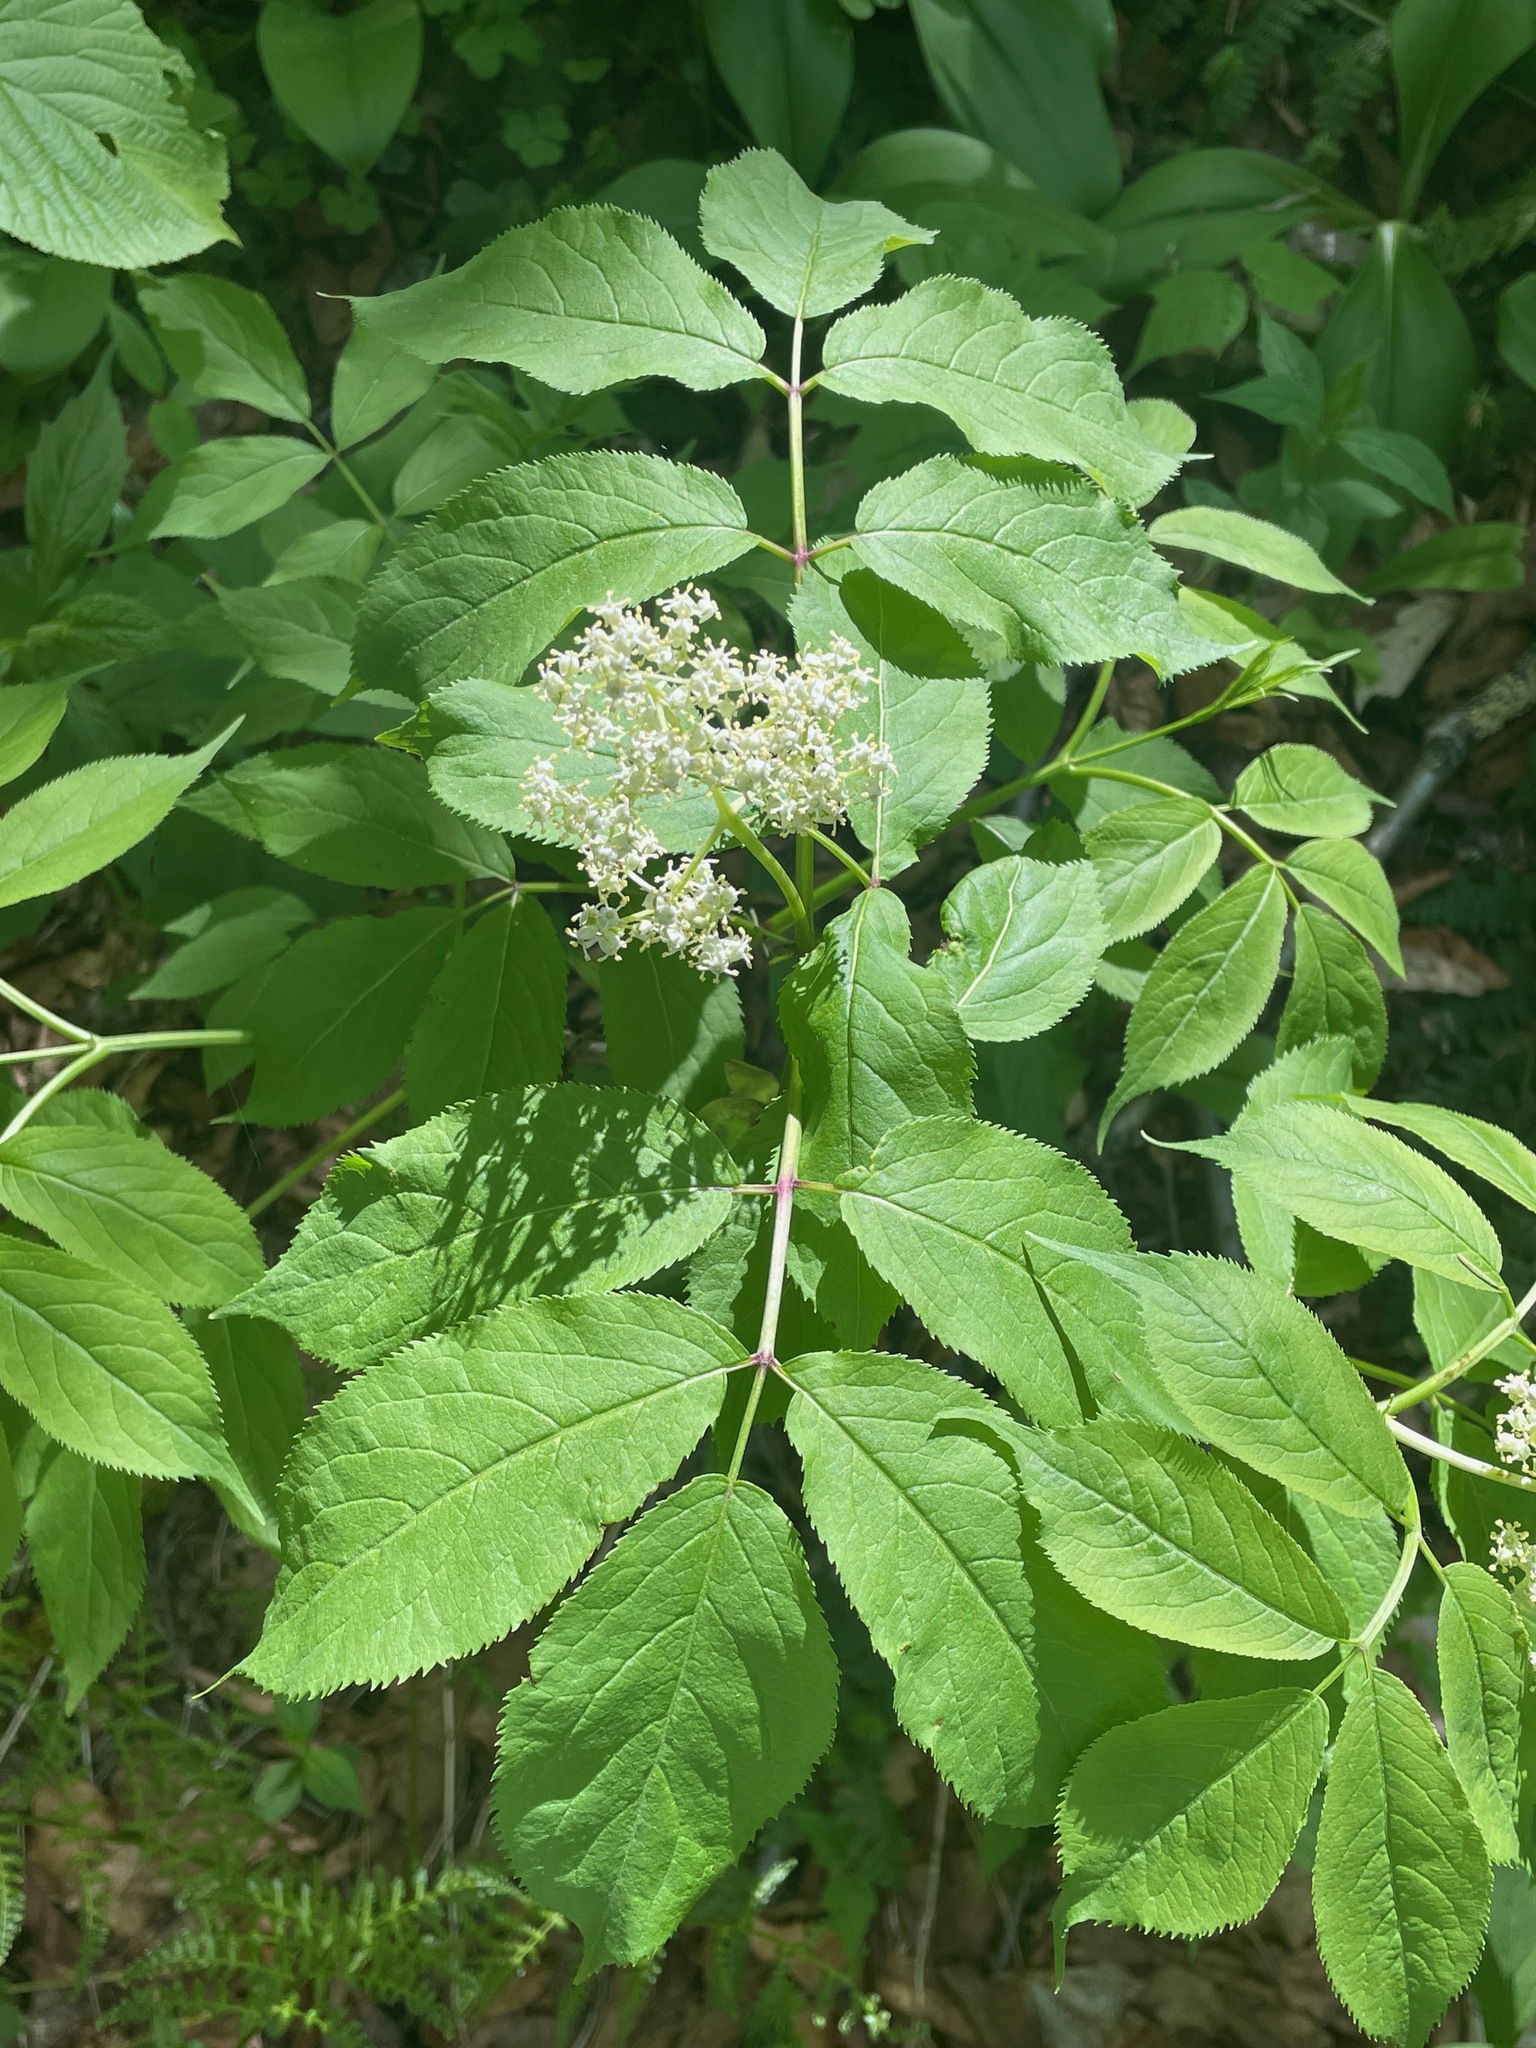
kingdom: Plantae
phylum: Tracheophyta
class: Magnoliopsida
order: Dipsacales
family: Viburnaceae
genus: Sambucus
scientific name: Sambucus racemosa
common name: Red-berried elder
